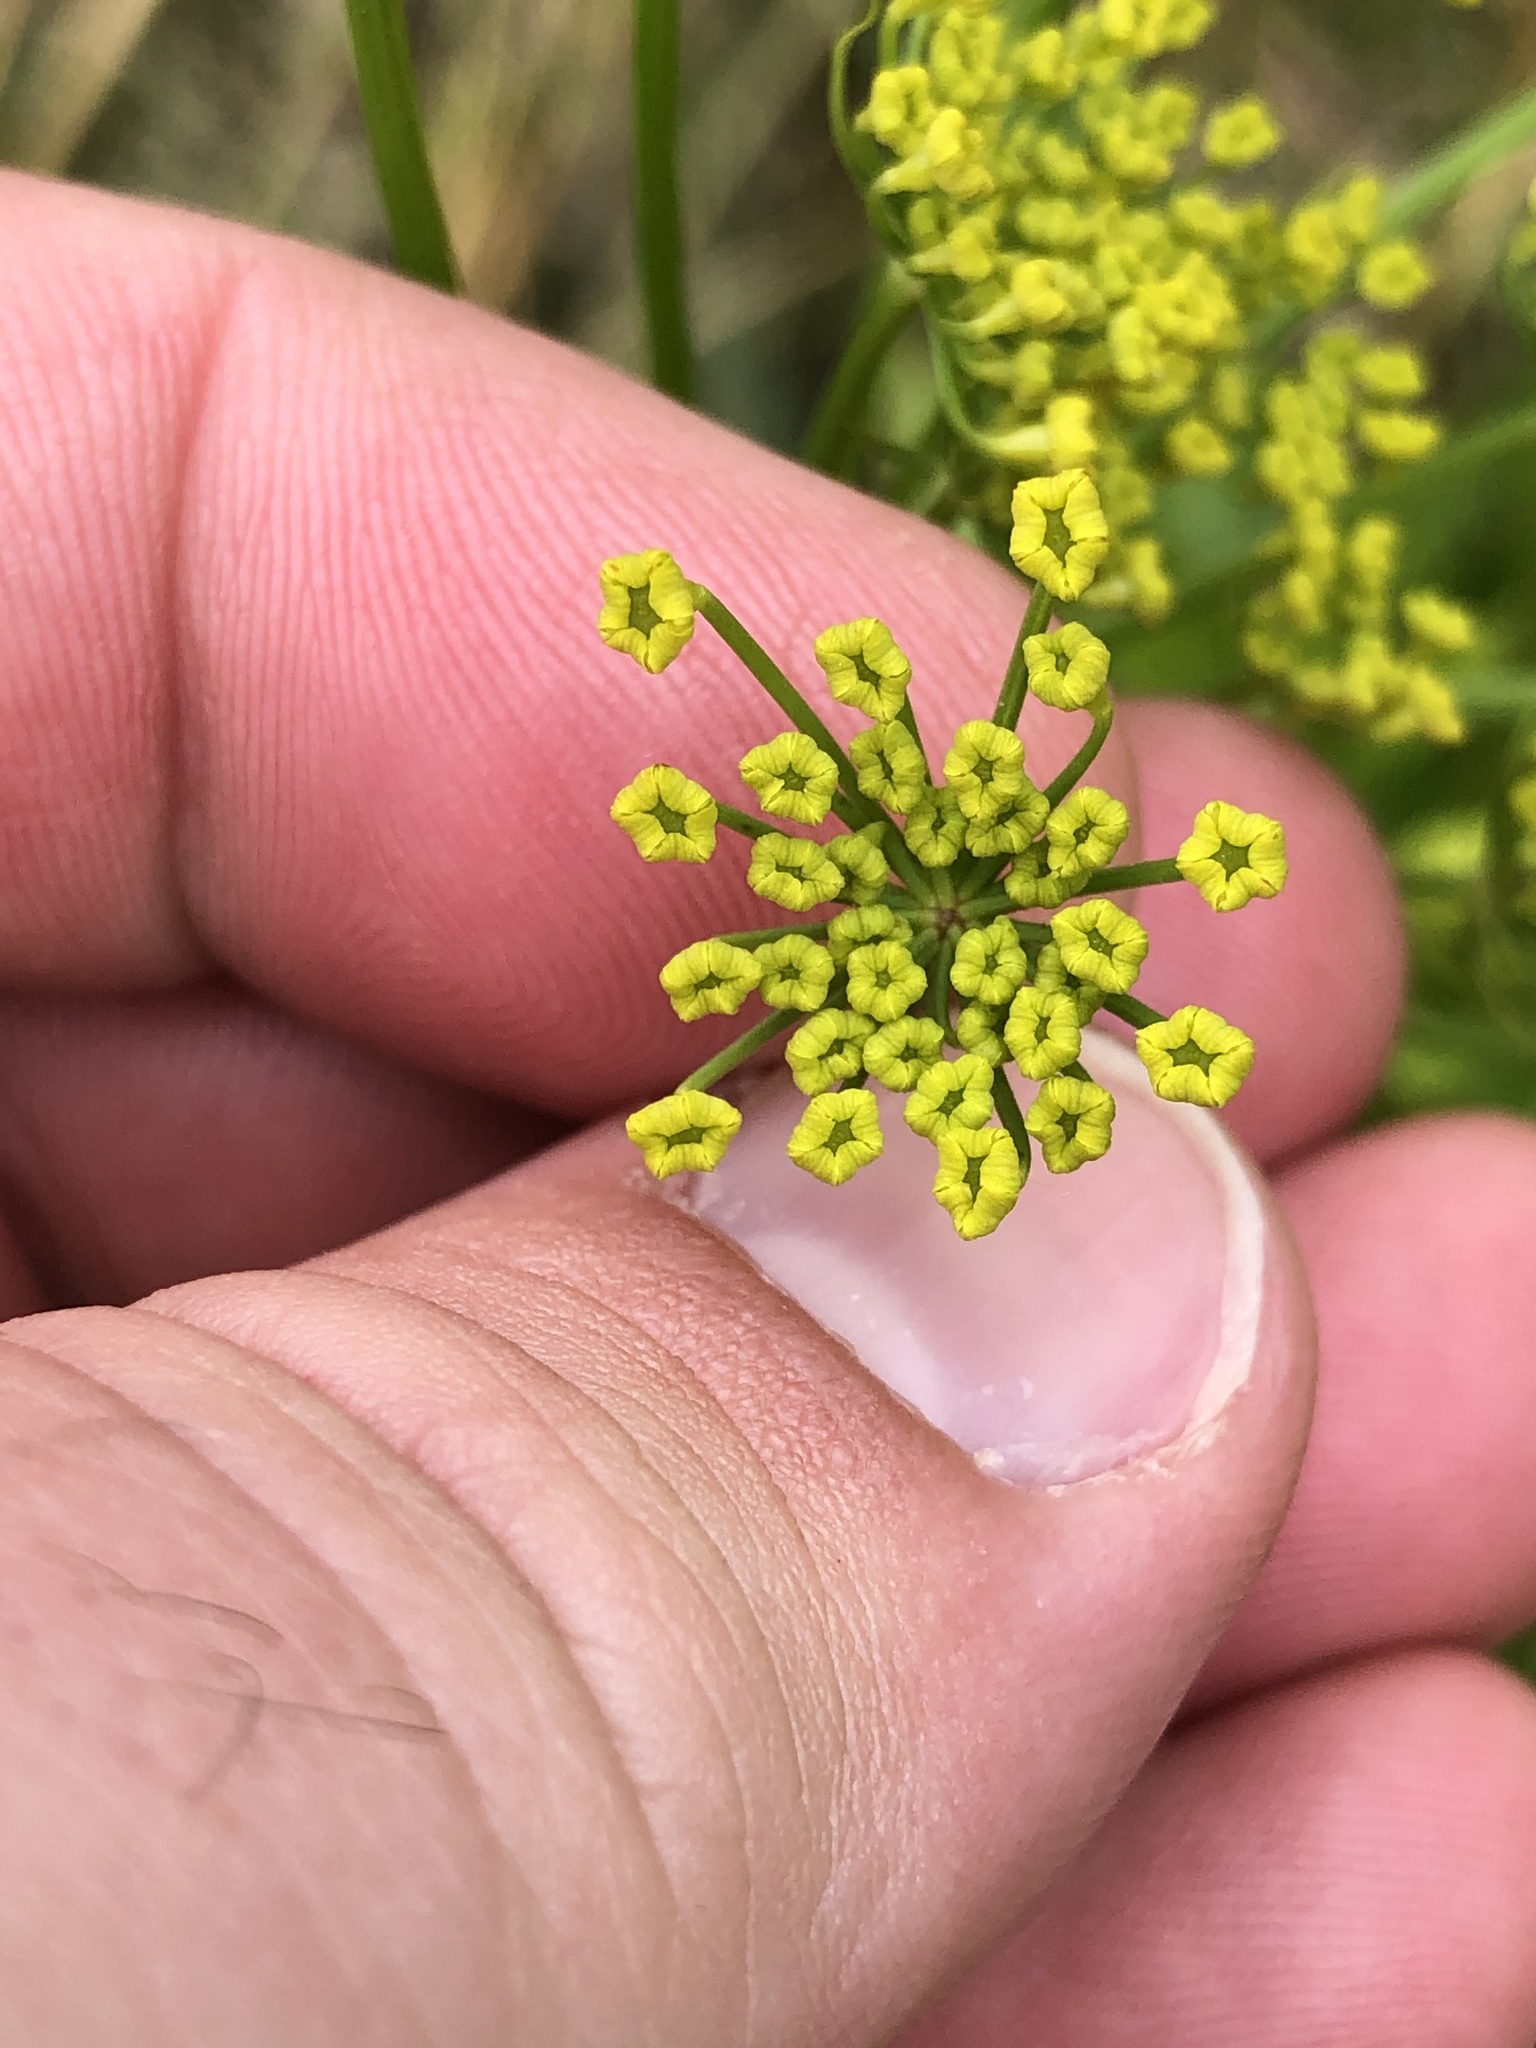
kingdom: Plantae
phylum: Tracheophyta
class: Magnoliopsida
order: Apiales
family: Apiaceae
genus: Pastinaca
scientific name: Pastinaca sativa
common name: Wild parsnip
